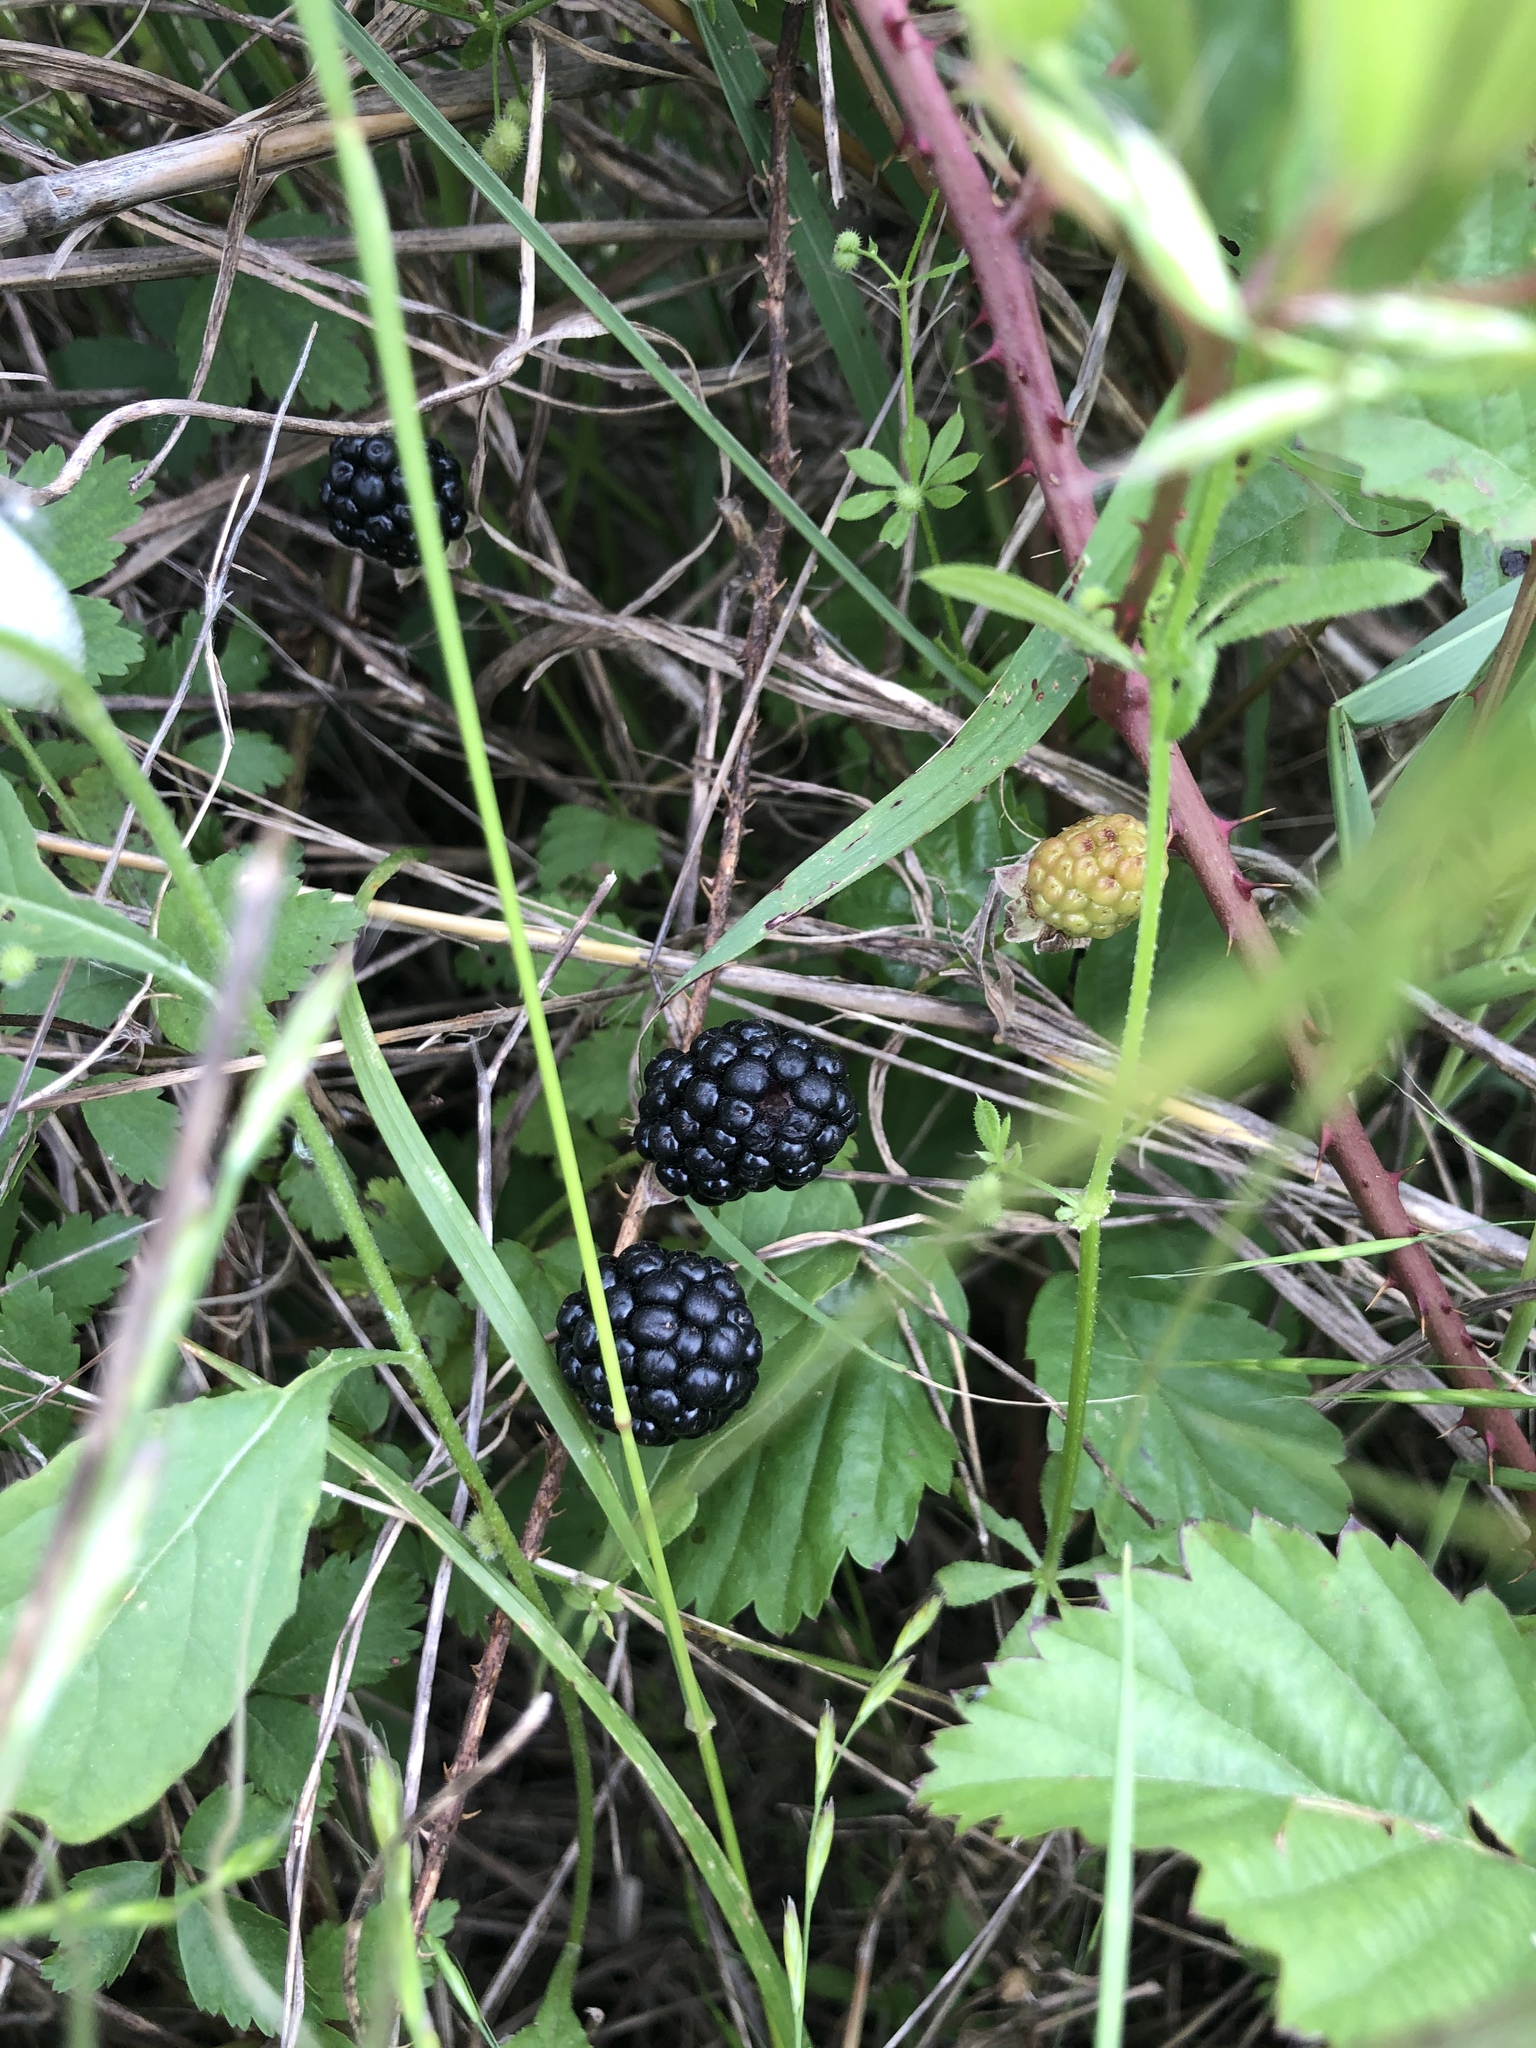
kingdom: Plantae
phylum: Tracheophyta
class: Magnoliopsida
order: Rosales
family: Rosaceae
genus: Rubus
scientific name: Rubus trivialis
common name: Southern dewberry
